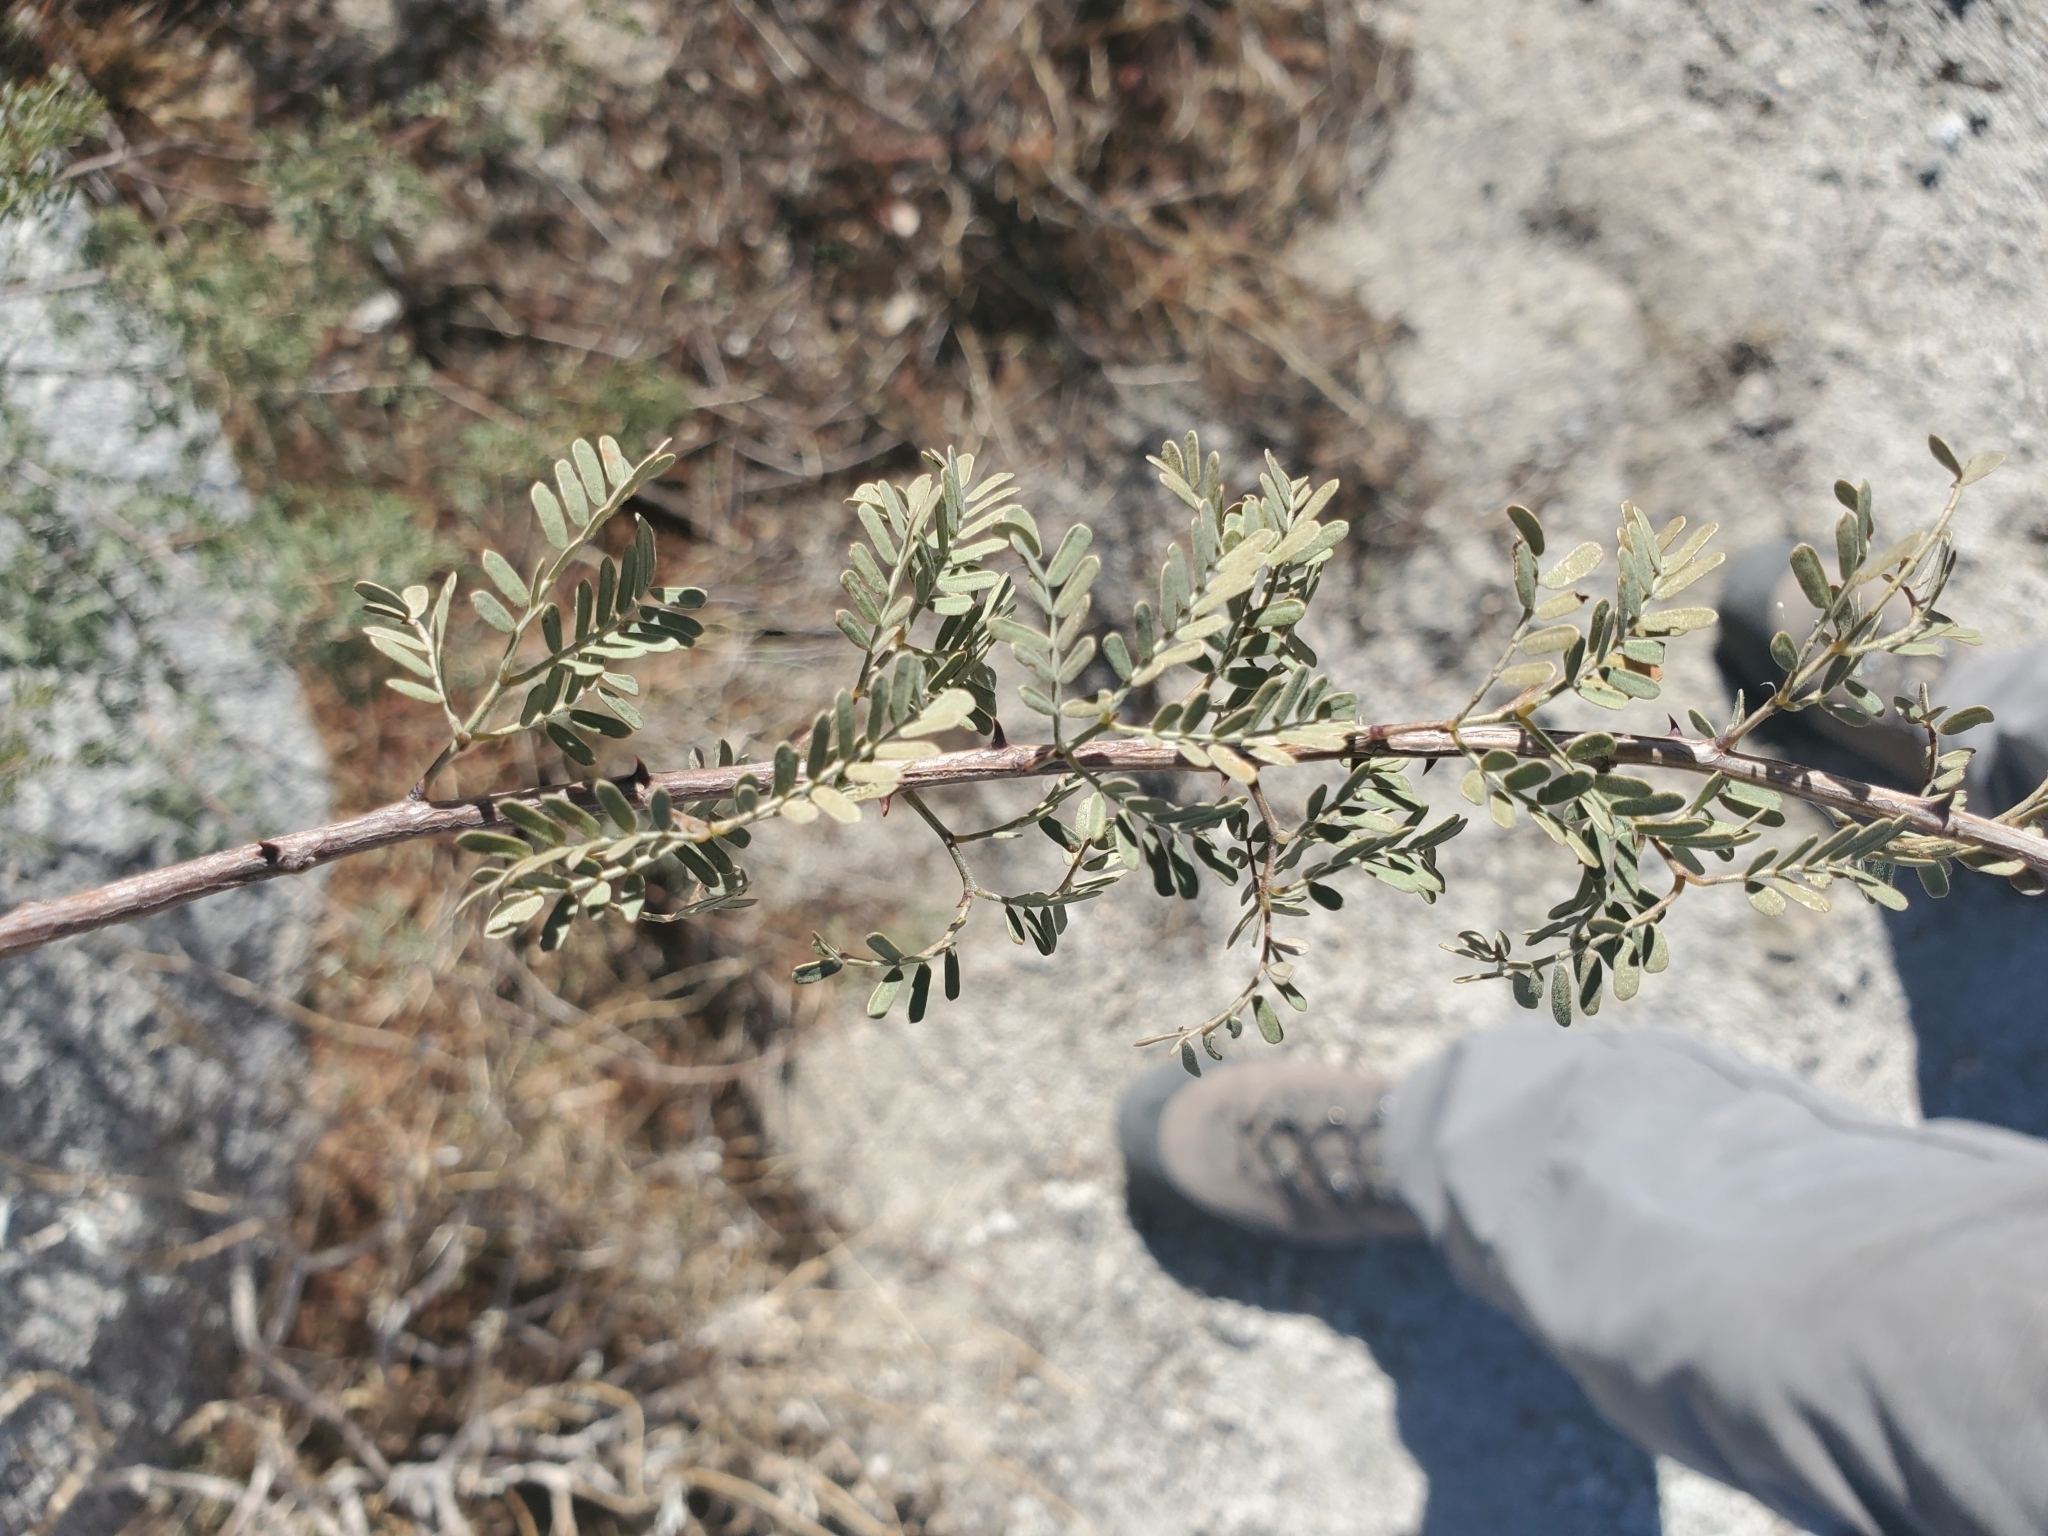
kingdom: Plantae
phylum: Tracheophyta
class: Magnoliopsida
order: Fabales
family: Fabaceae
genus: Senegalia
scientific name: Senegalia greggii
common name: Texas-mimosa
